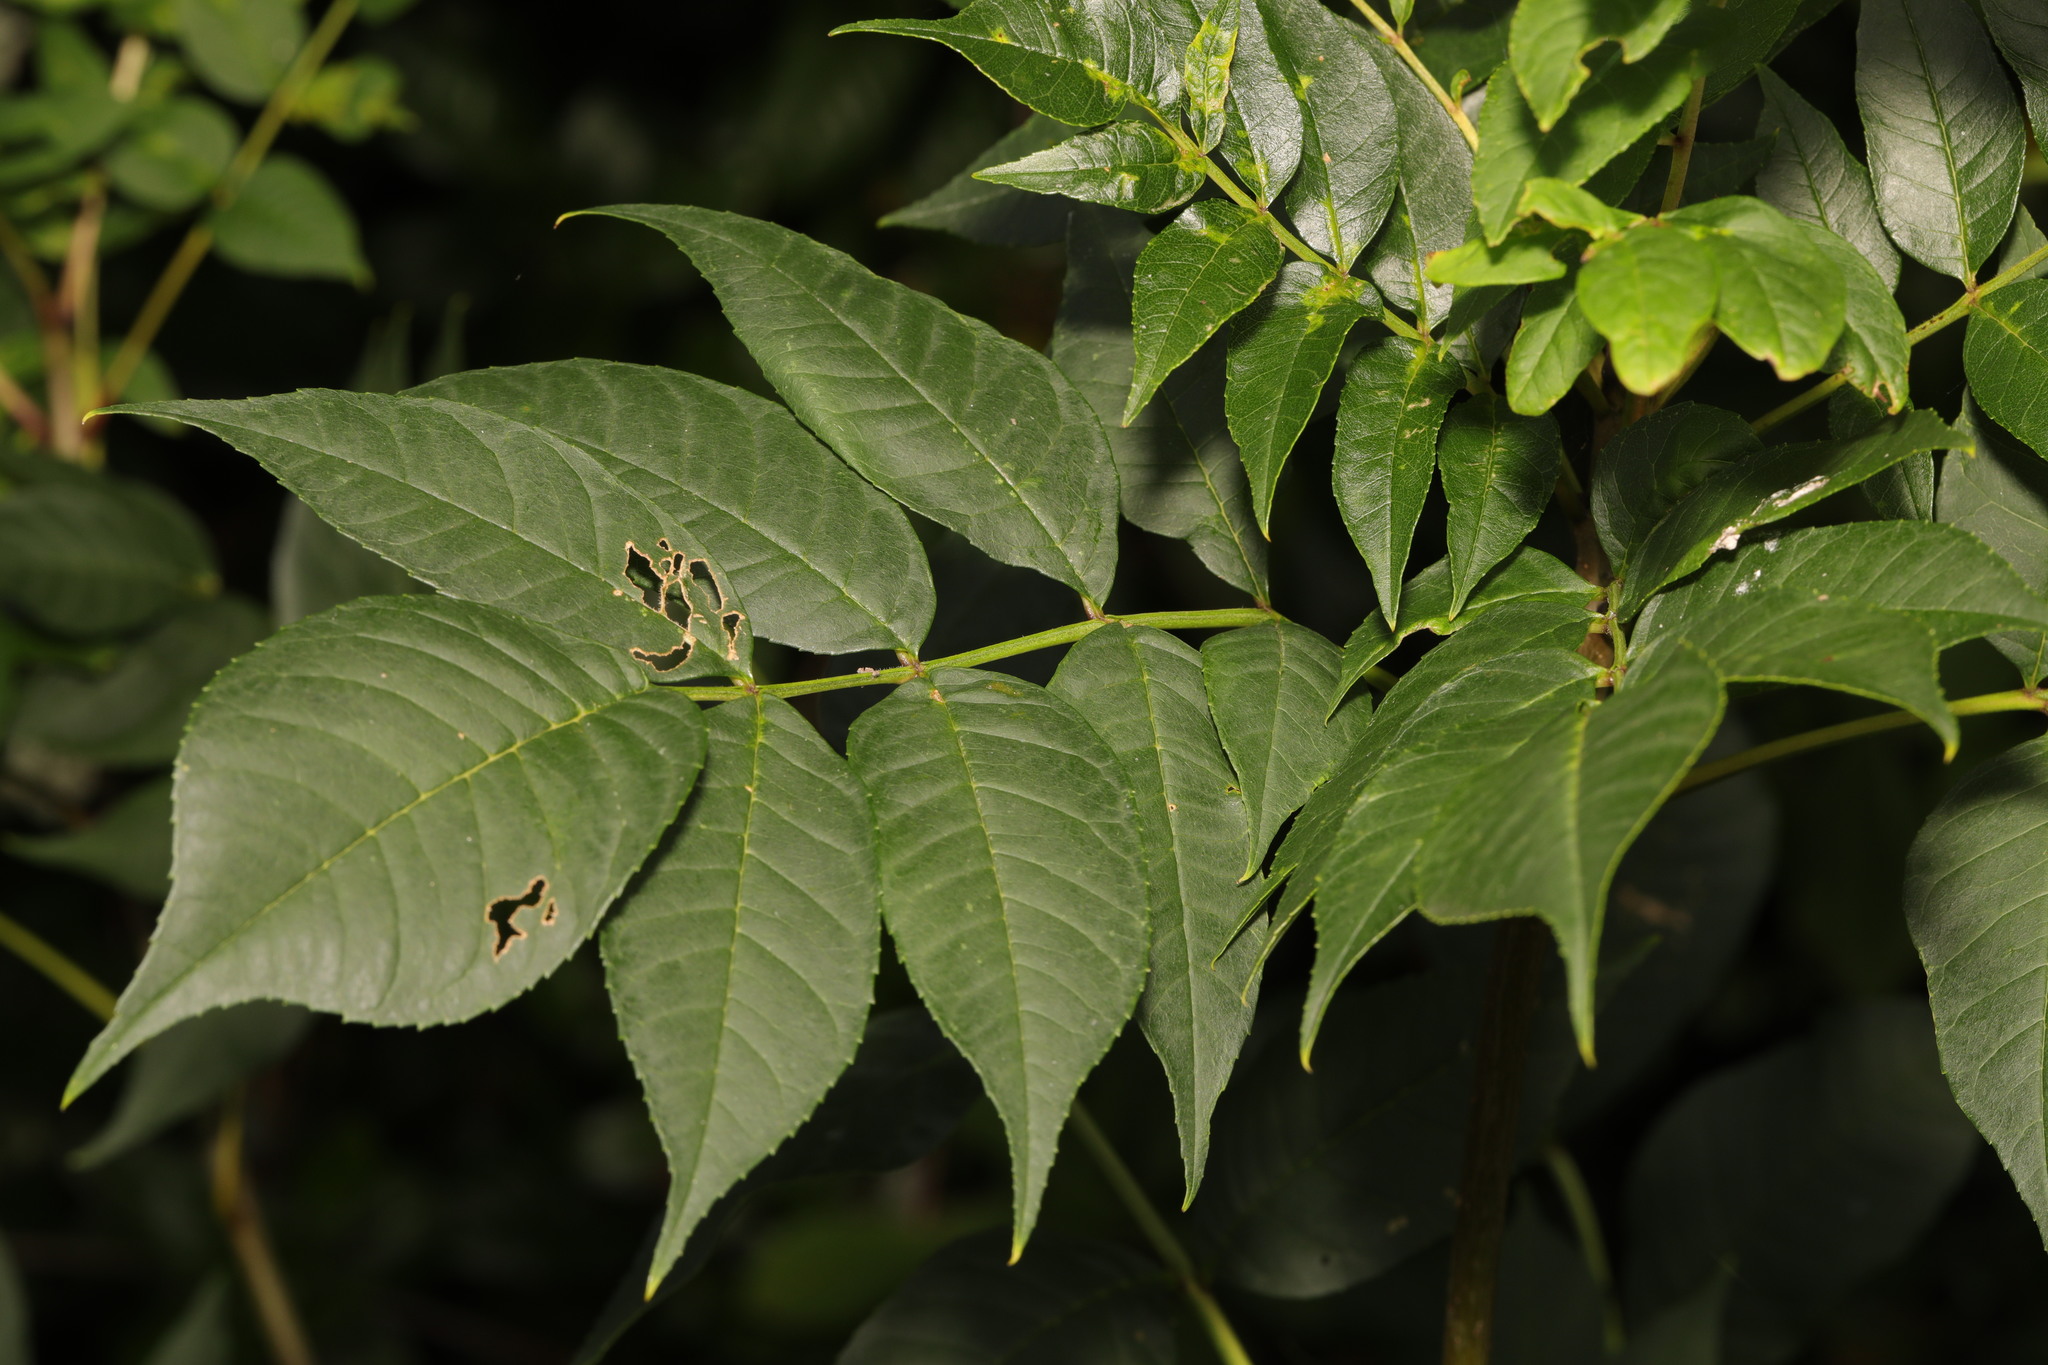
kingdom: Plantae
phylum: Tracheophyta
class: Magnoliopsida
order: Lamiales
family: Oleaceae
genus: Fraxinus
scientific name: Fraxinus excelsior
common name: European ash
